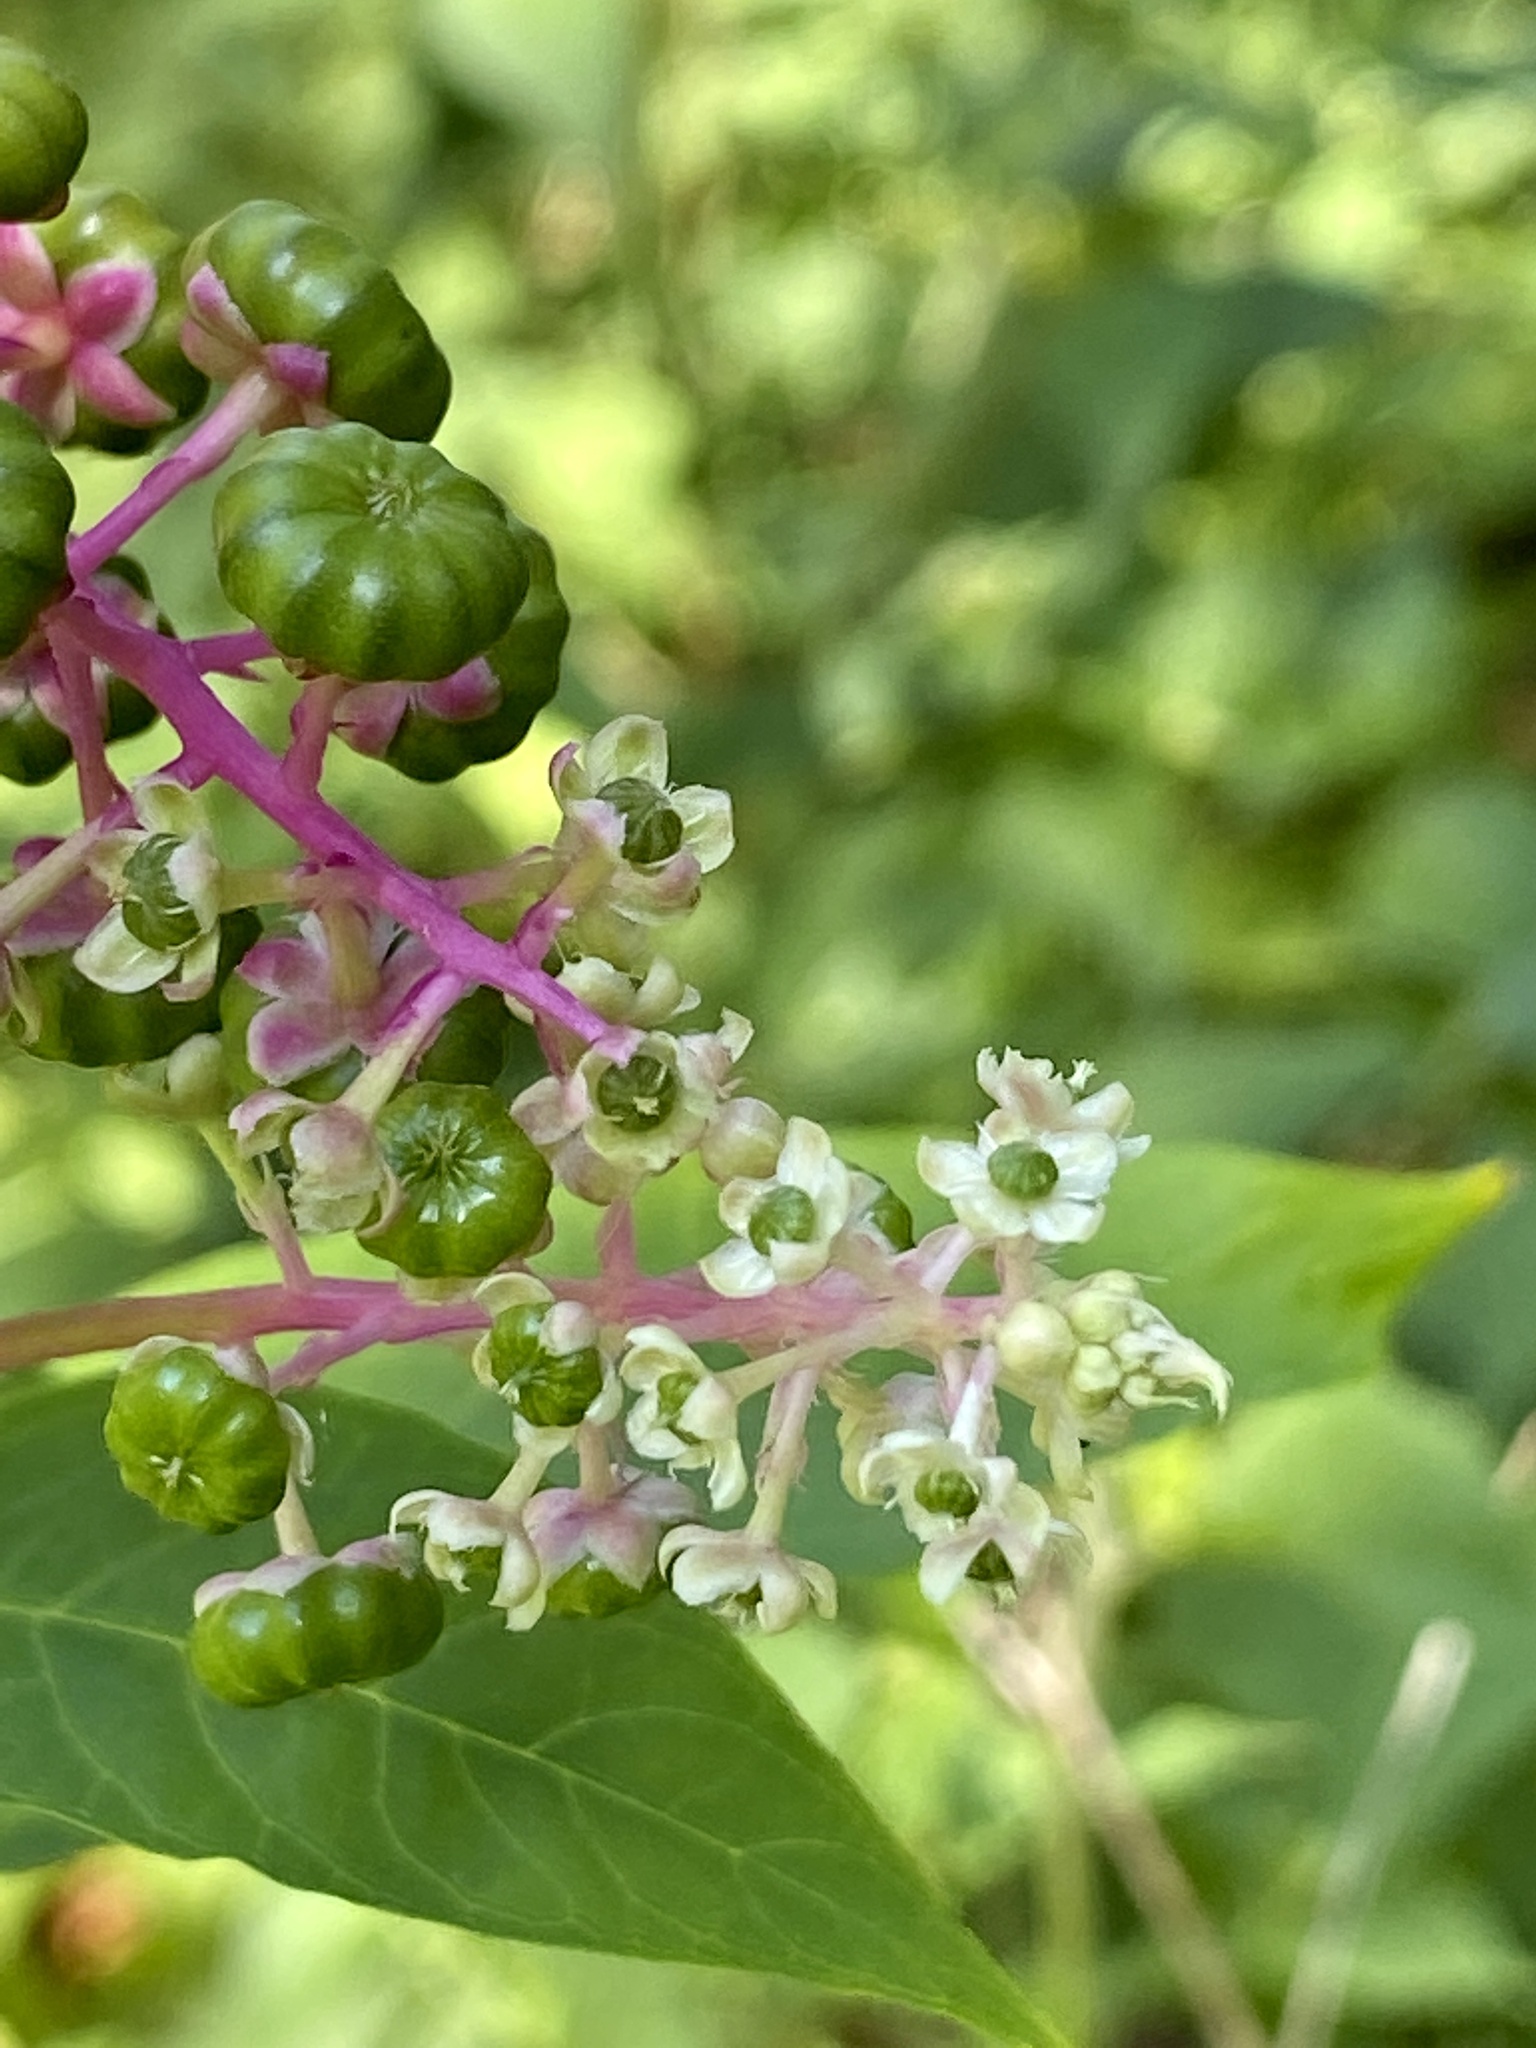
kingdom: Plantae
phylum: Tracheophyta
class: Magnoliopsida
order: Caryophyllales
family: Phytolaccaceae
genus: Phytolacca
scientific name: Phytolacca americana
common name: American pokeweed
